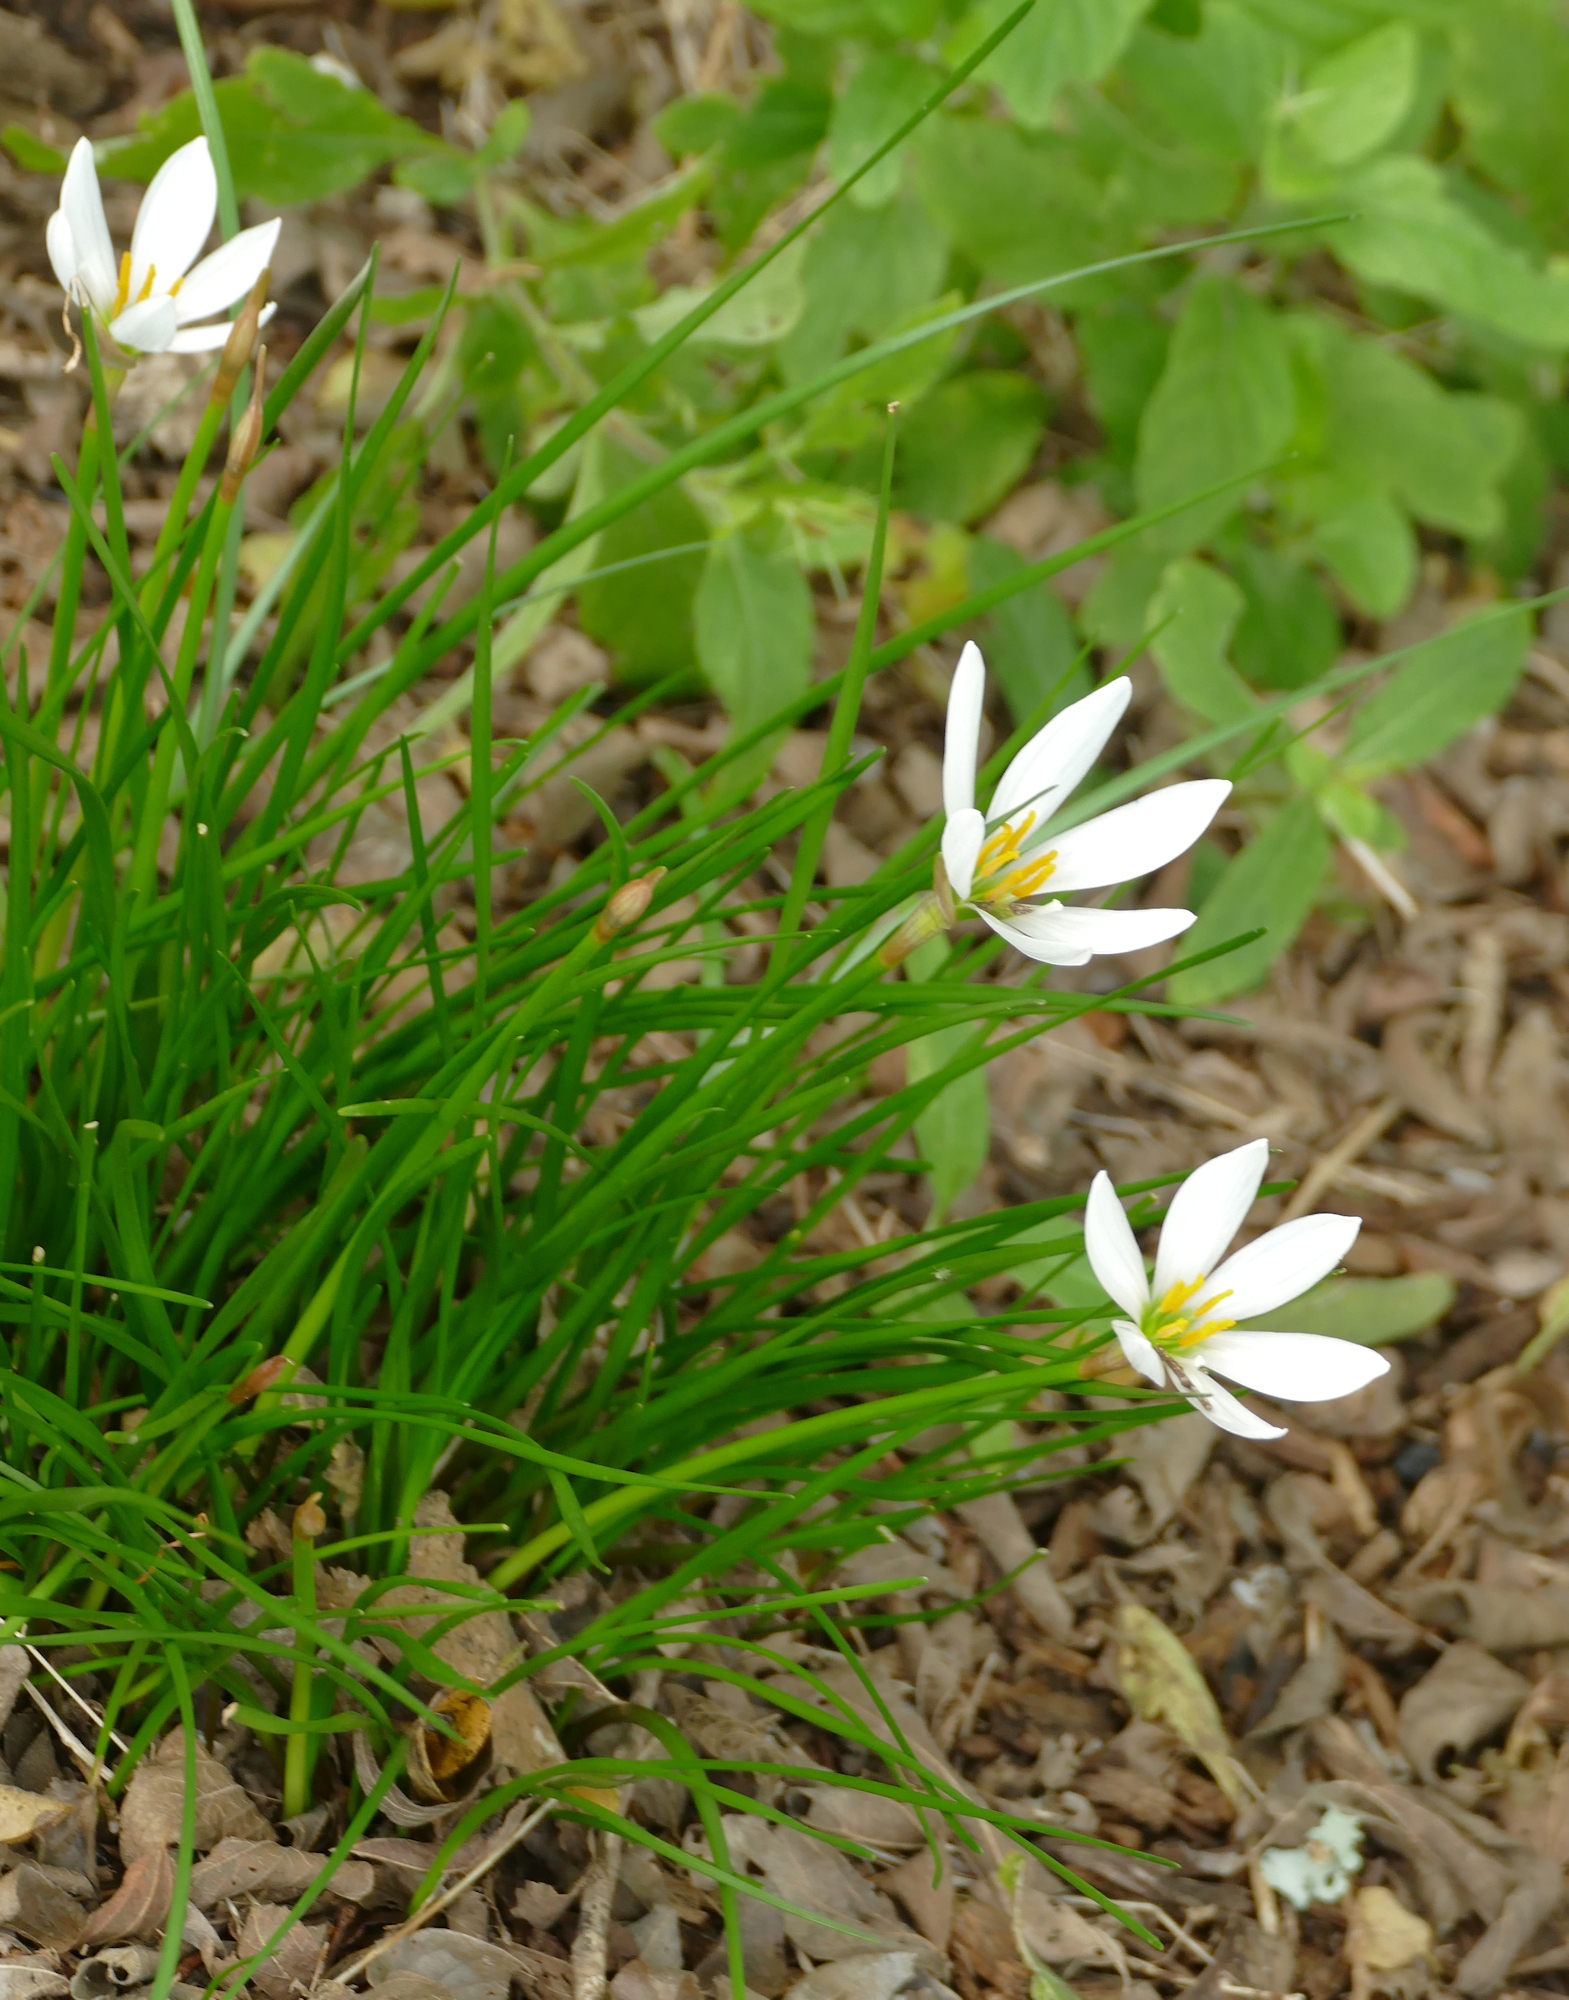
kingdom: Plantae
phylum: Tracheophyta
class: Liliopsida
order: Asparagales
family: Amaryllidaceae
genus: Zephyranthes
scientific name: Zephyranthes candida
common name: Autumn zephyrlily
